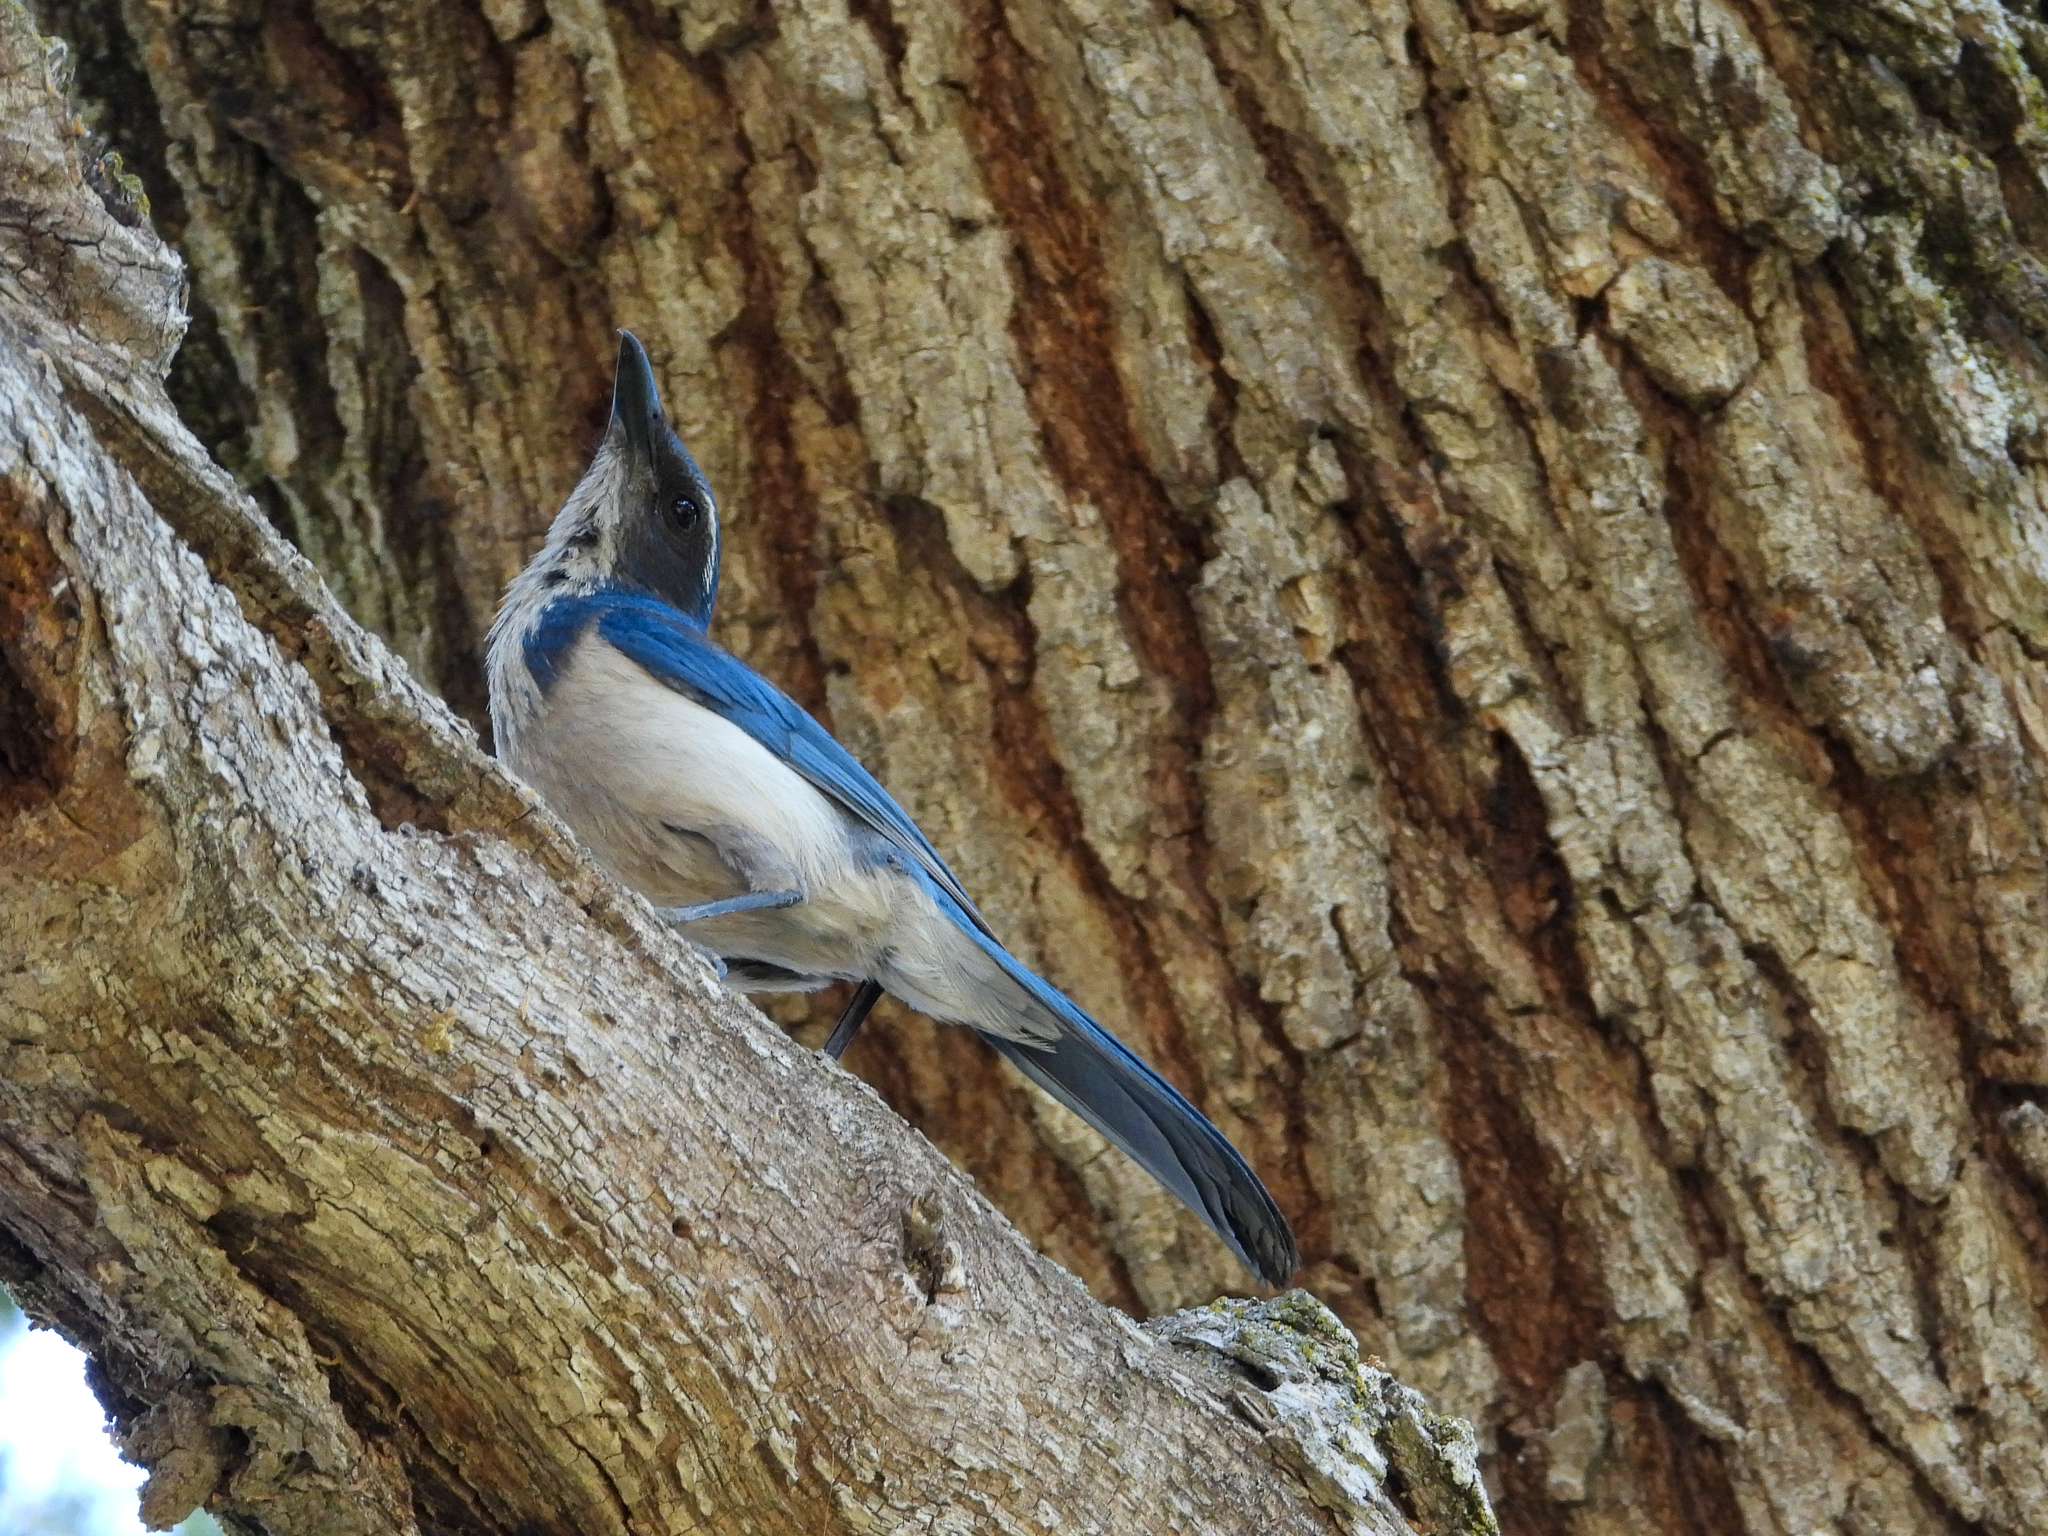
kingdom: Animalia
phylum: Chordata
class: Aves
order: Passeriformes
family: Corvidae
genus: Aphelocoma
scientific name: Aphelocoma californica
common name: California scrub-jay
